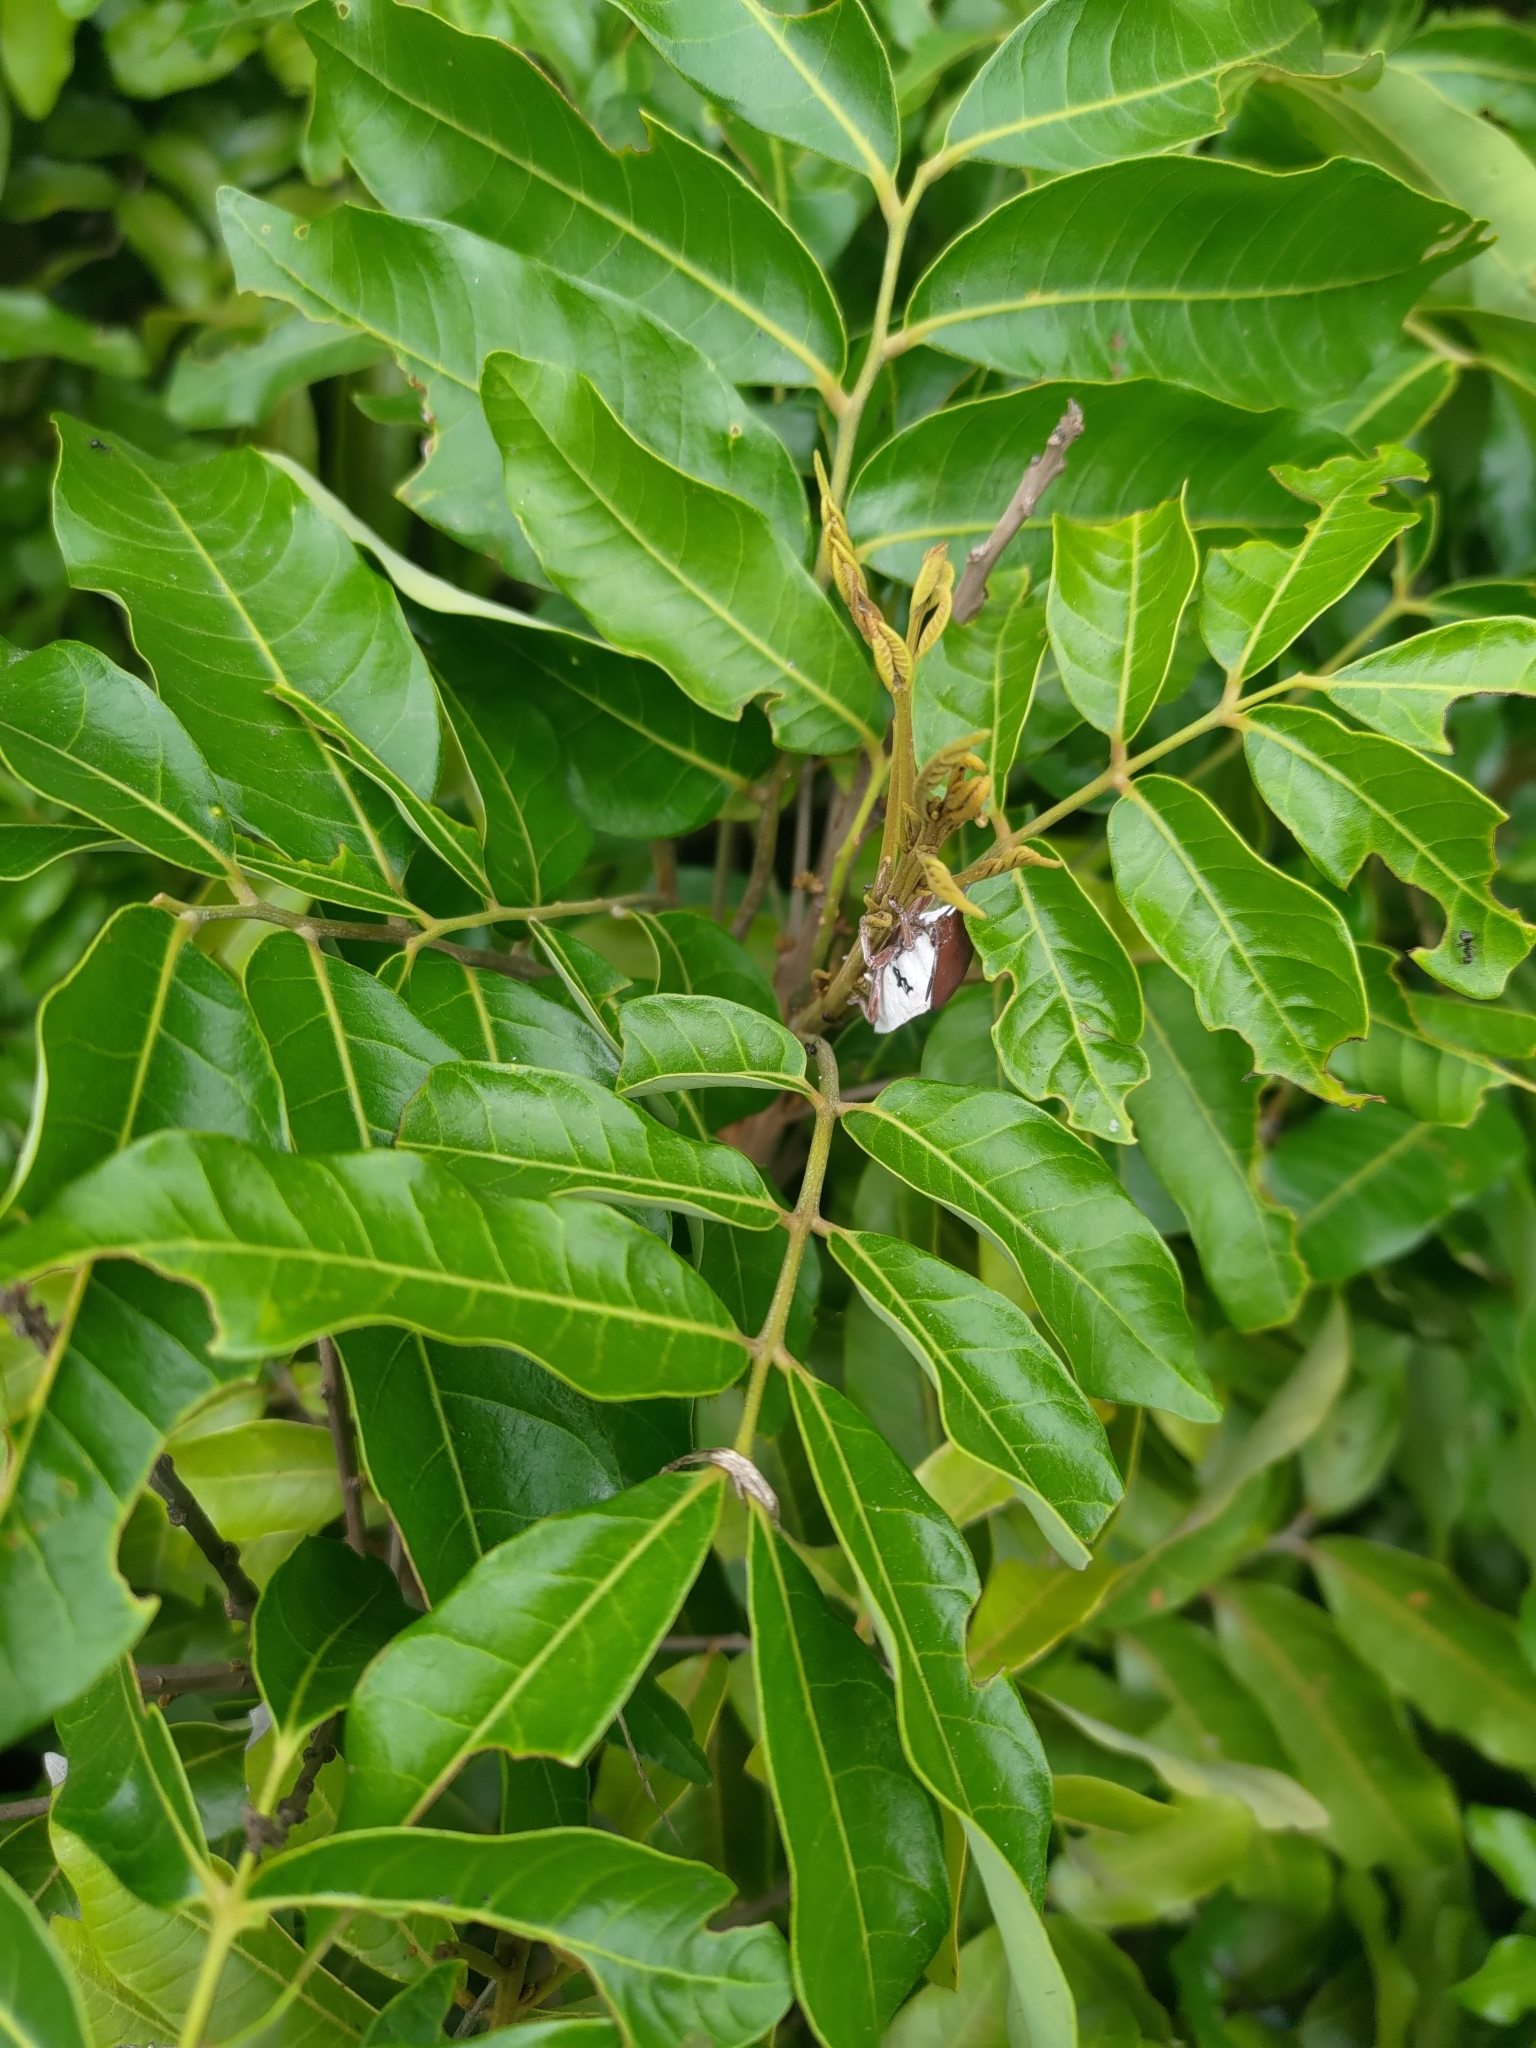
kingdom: Animalia
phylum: Arthropoda
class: Insecta
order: Hemiptera
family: Tessaratomidae
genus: Tessaratoma
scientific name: Tessaratoma papillosa
